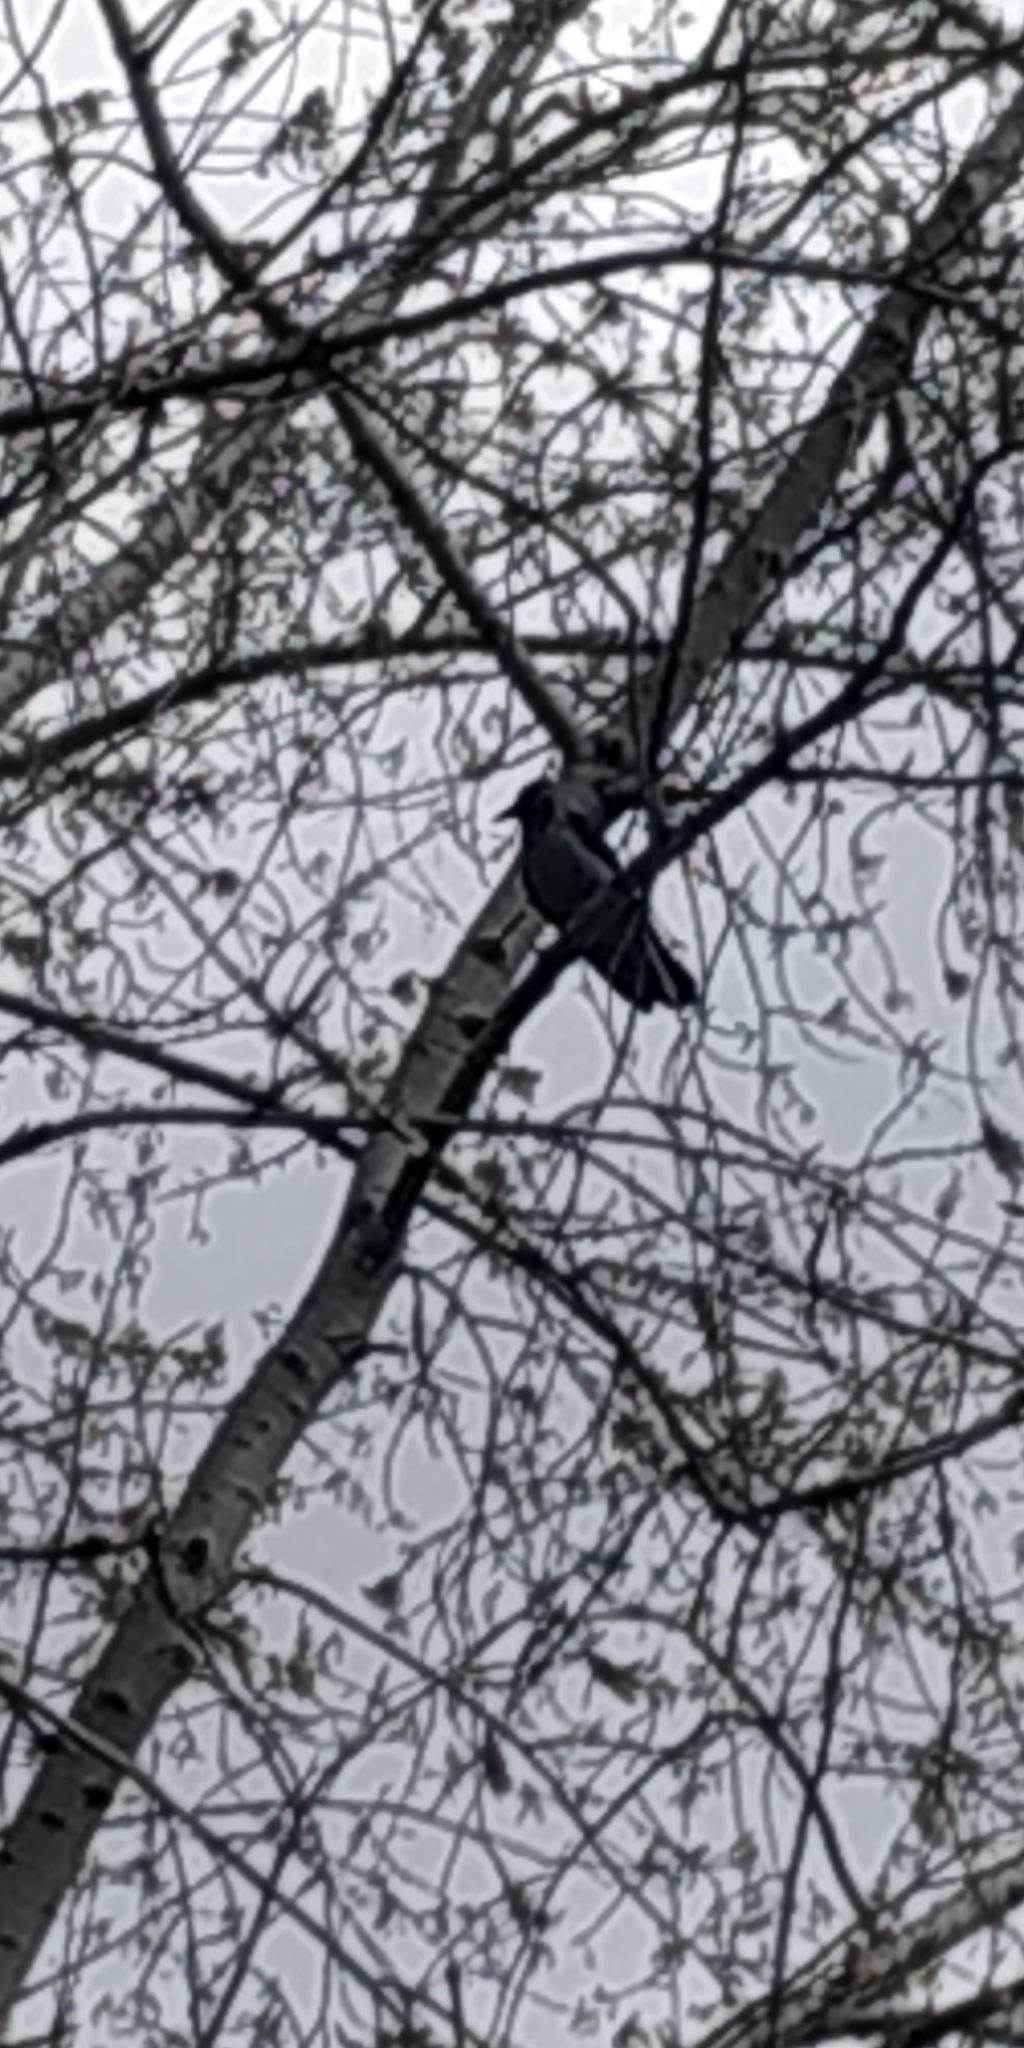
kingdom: Animalia
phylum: Chordata
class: Aves
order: Passeriformes
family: Corvidae
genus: Corvus
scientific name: Corvus cornix
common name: Hooded crow
